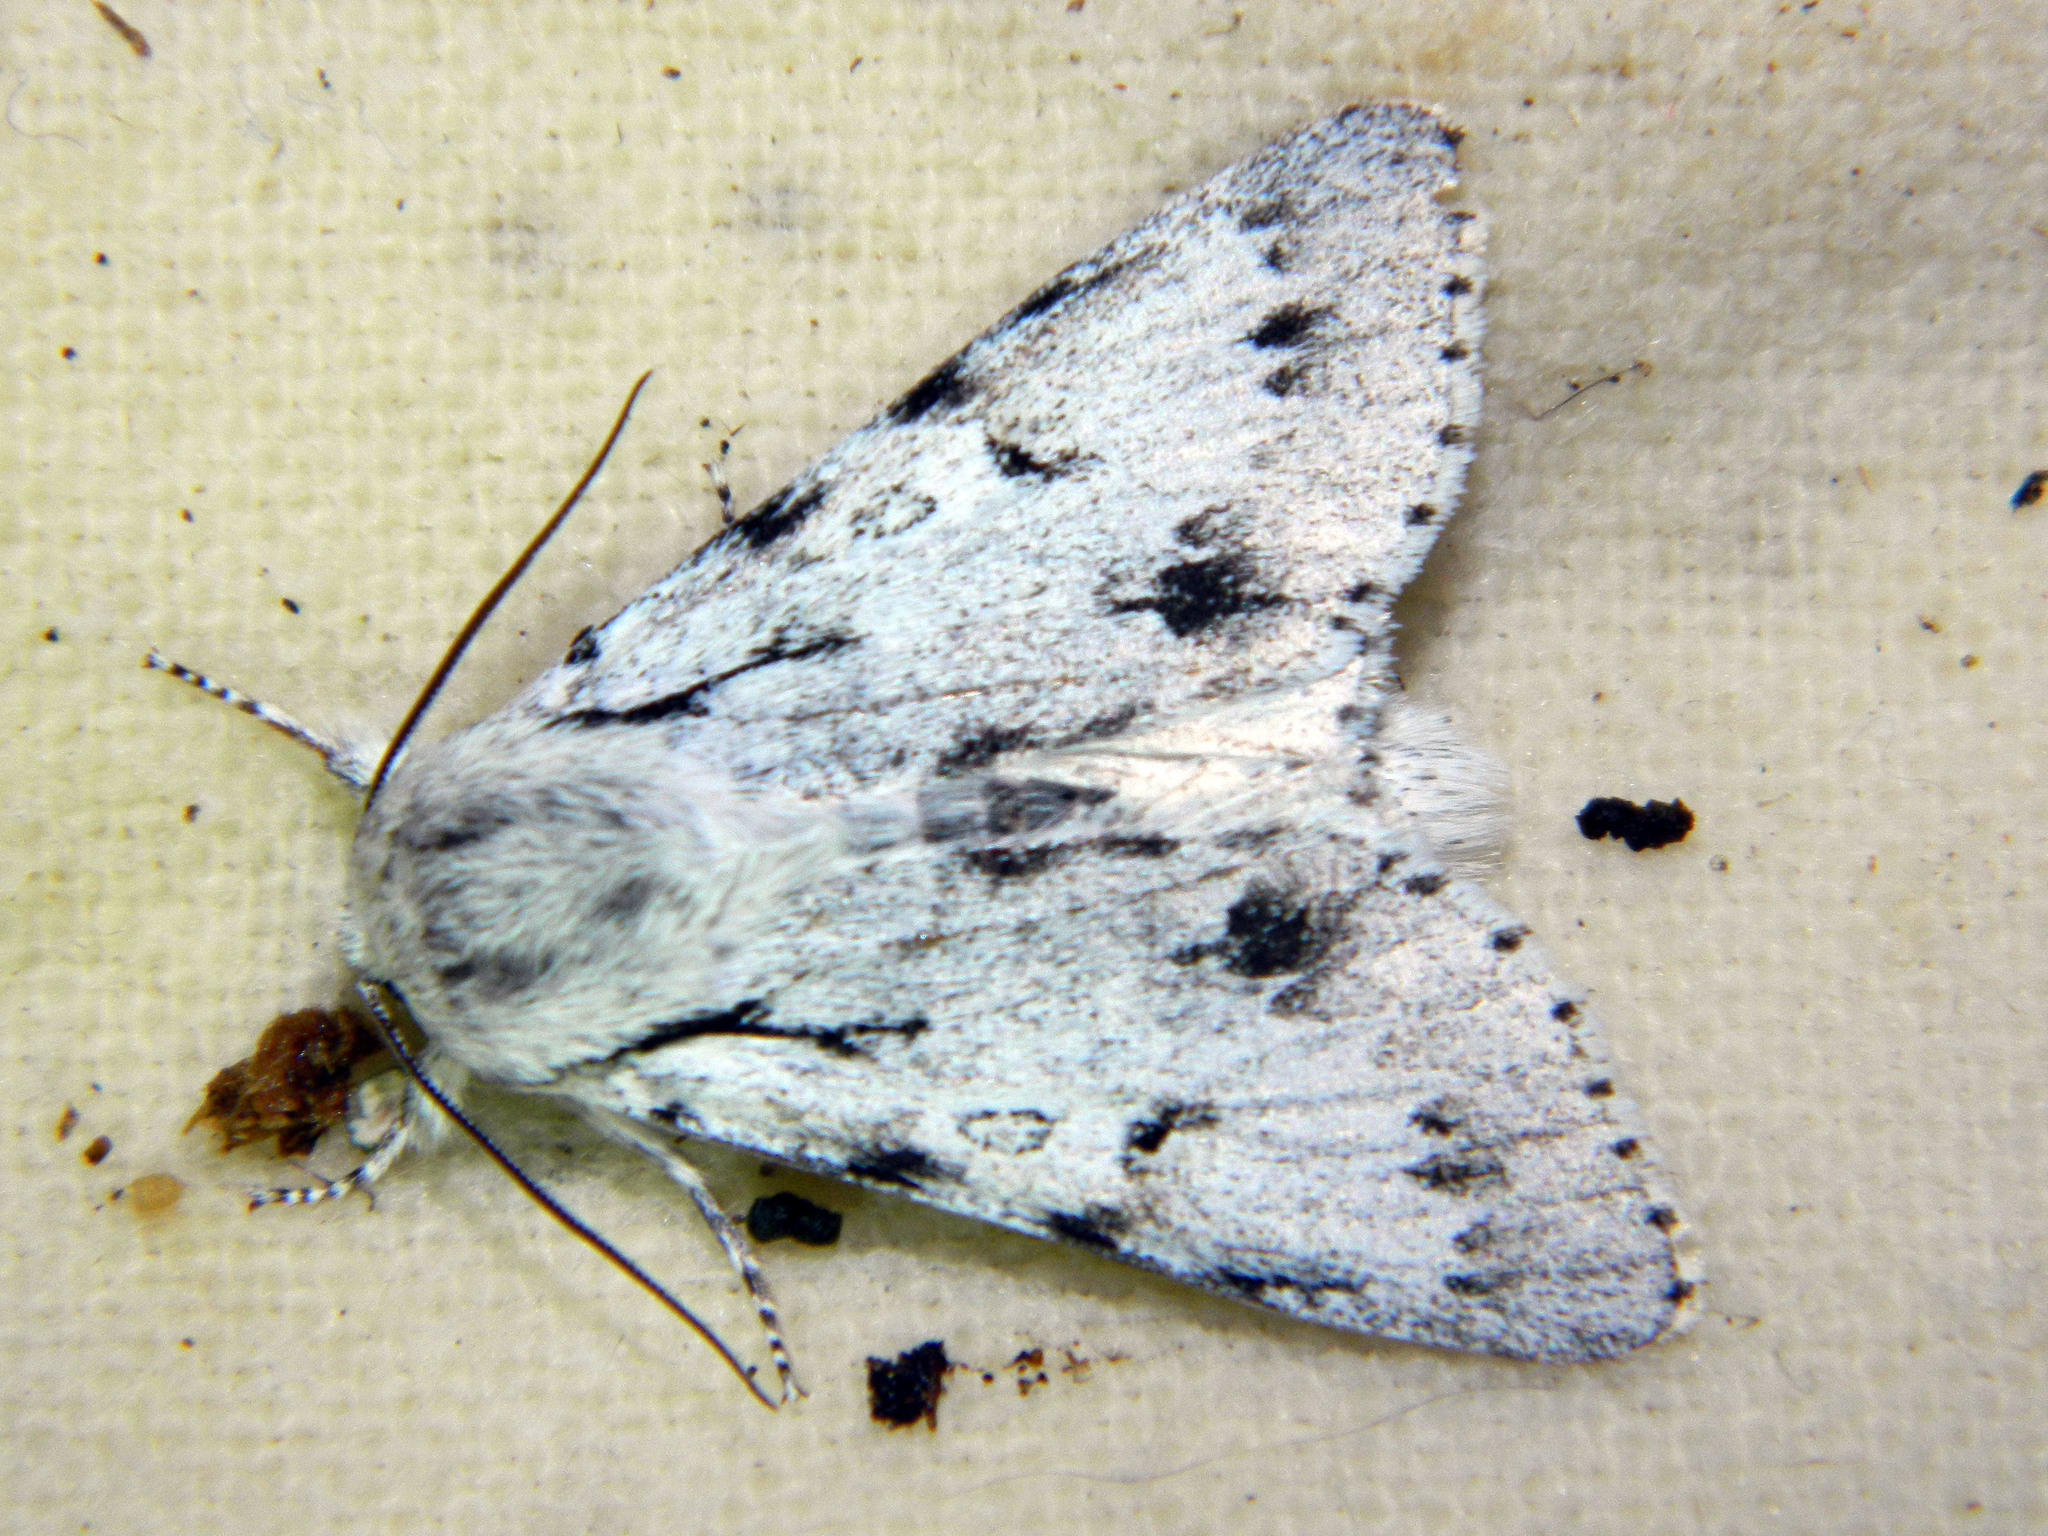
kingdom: Animalia
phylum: Arthropoda
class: Insecta
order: Lepidoptera
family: Noctuidae
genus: Acronicta
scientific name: Acronicta lepusculina
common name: Cottonwood dagger
